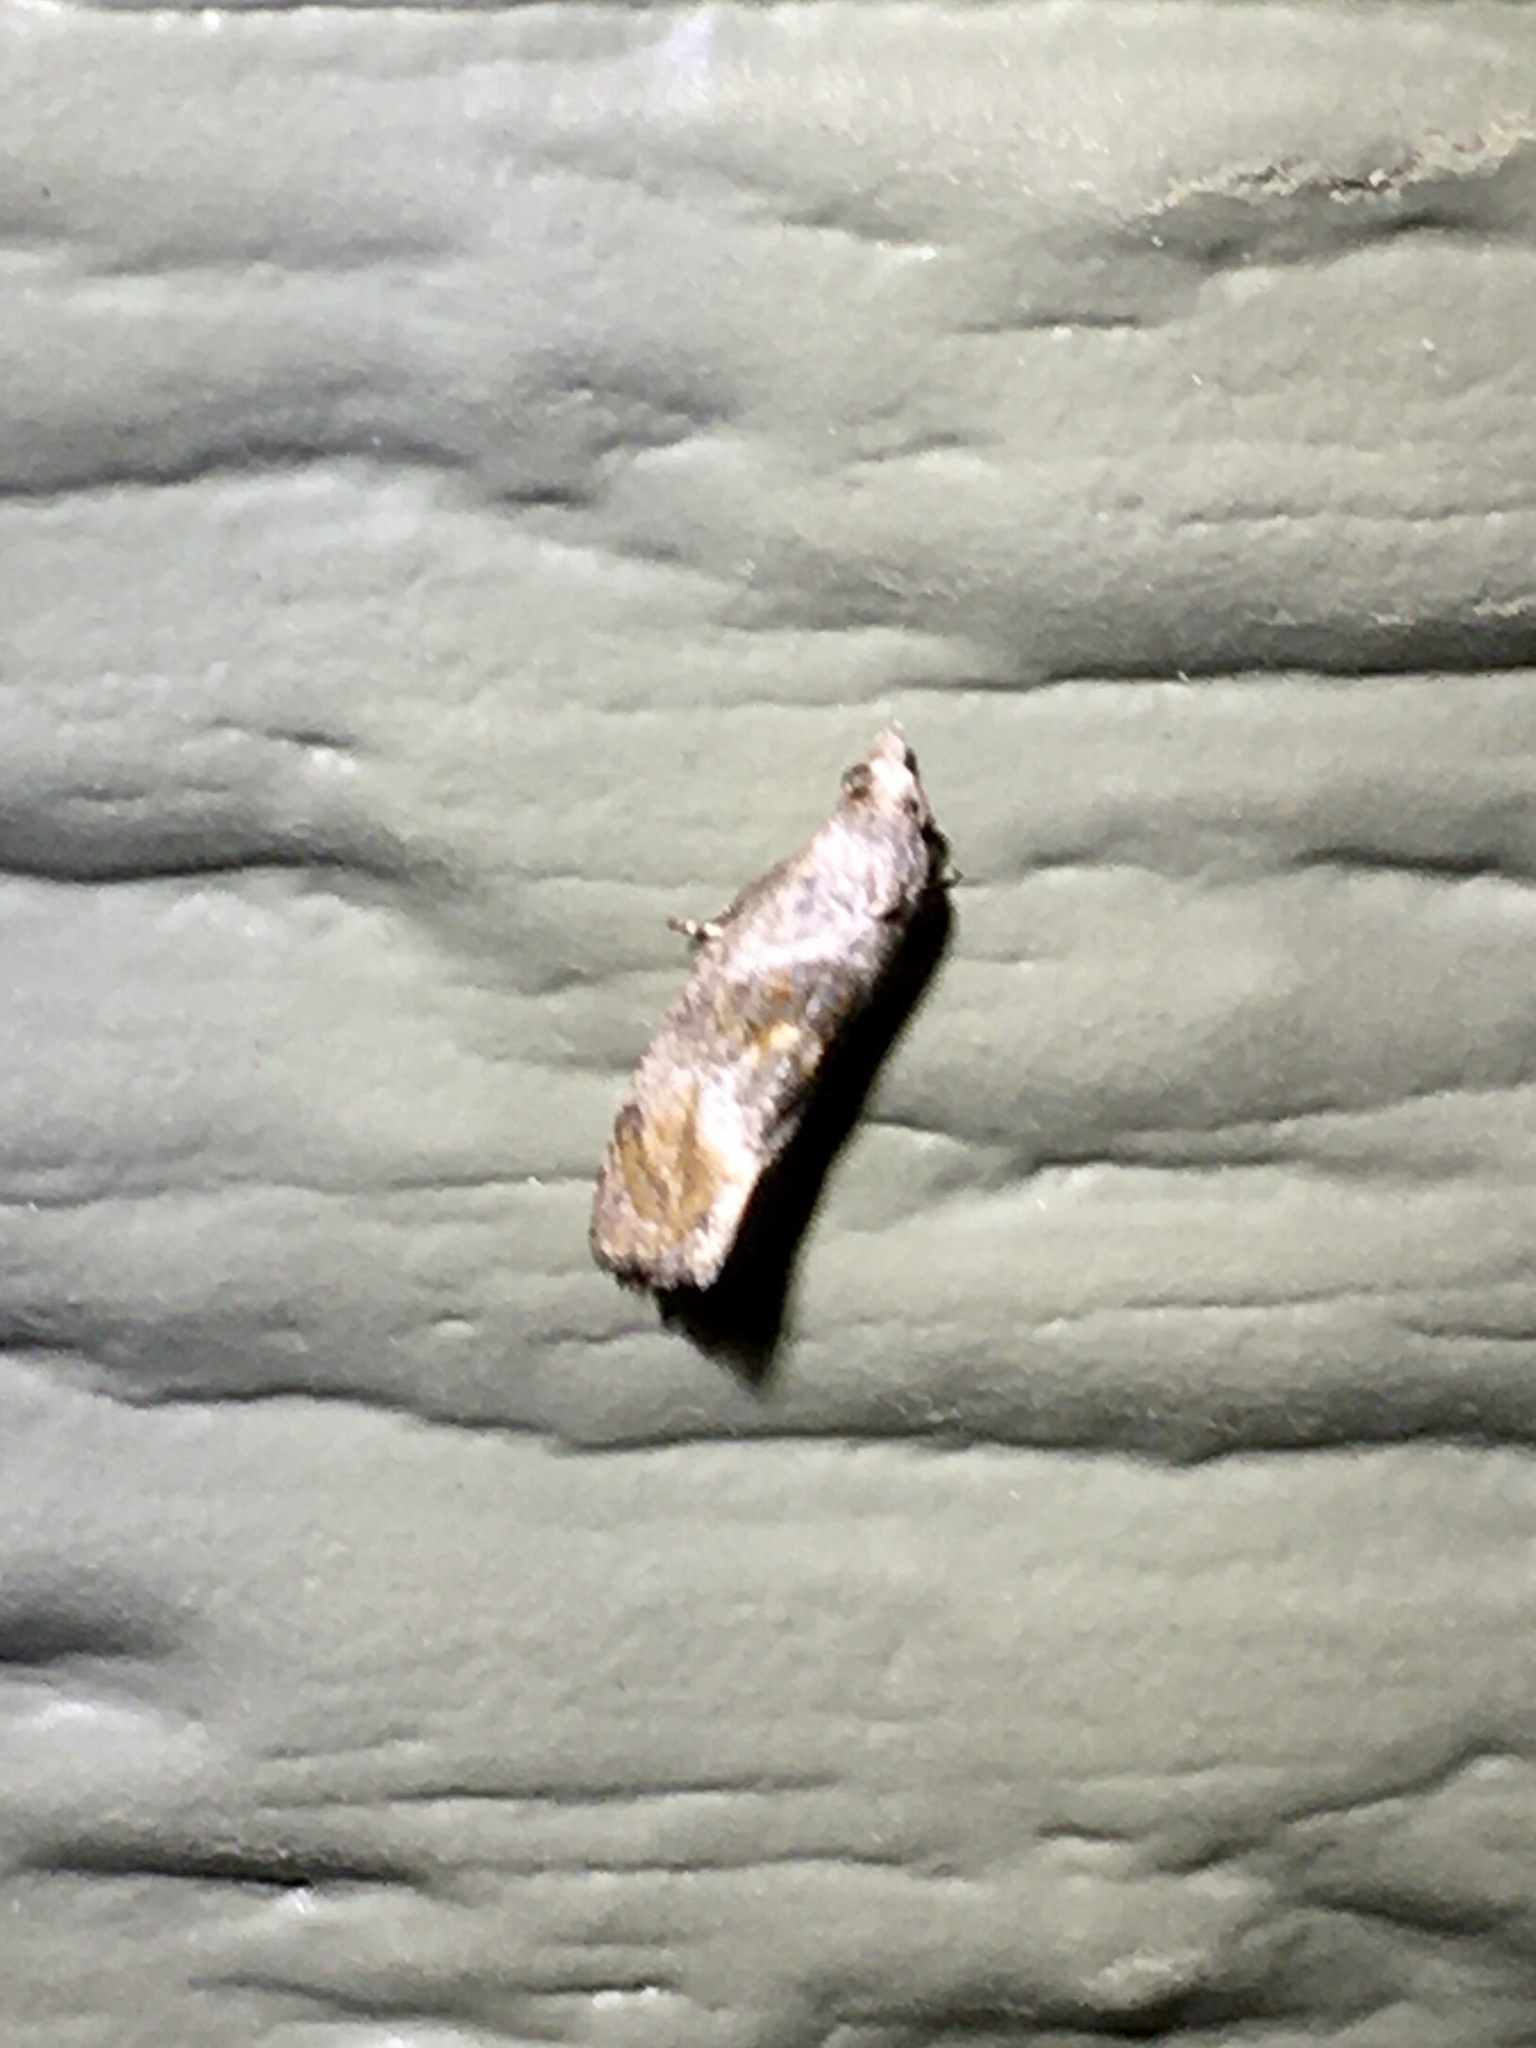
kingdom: Animalia
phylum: Arthropoda
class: Insecta
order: Lepidoptera
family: Tortricidae
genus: Cochylis
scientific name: Cochylis Cochylichroa temerana
